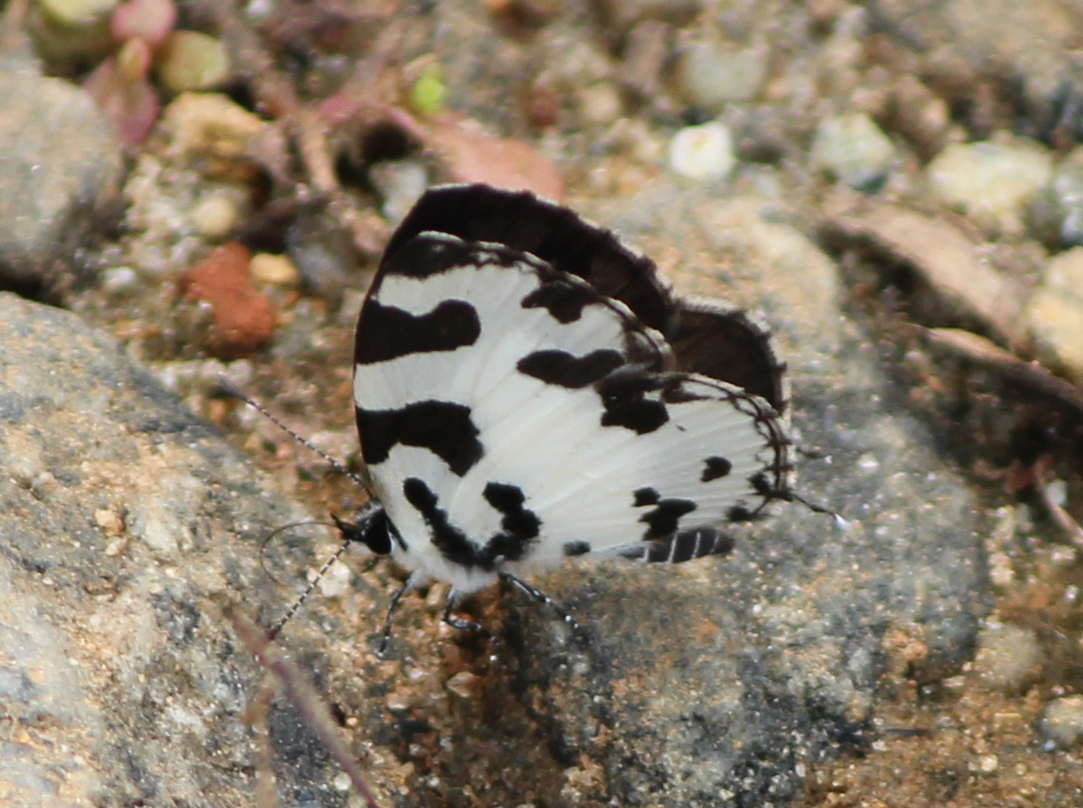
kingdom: Animalia
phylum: Arthropoda
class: Insecta
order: Lepidoptera
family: Lycaenidae
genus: Caleta
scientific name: Caleta decidia
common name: Angled pierrot
